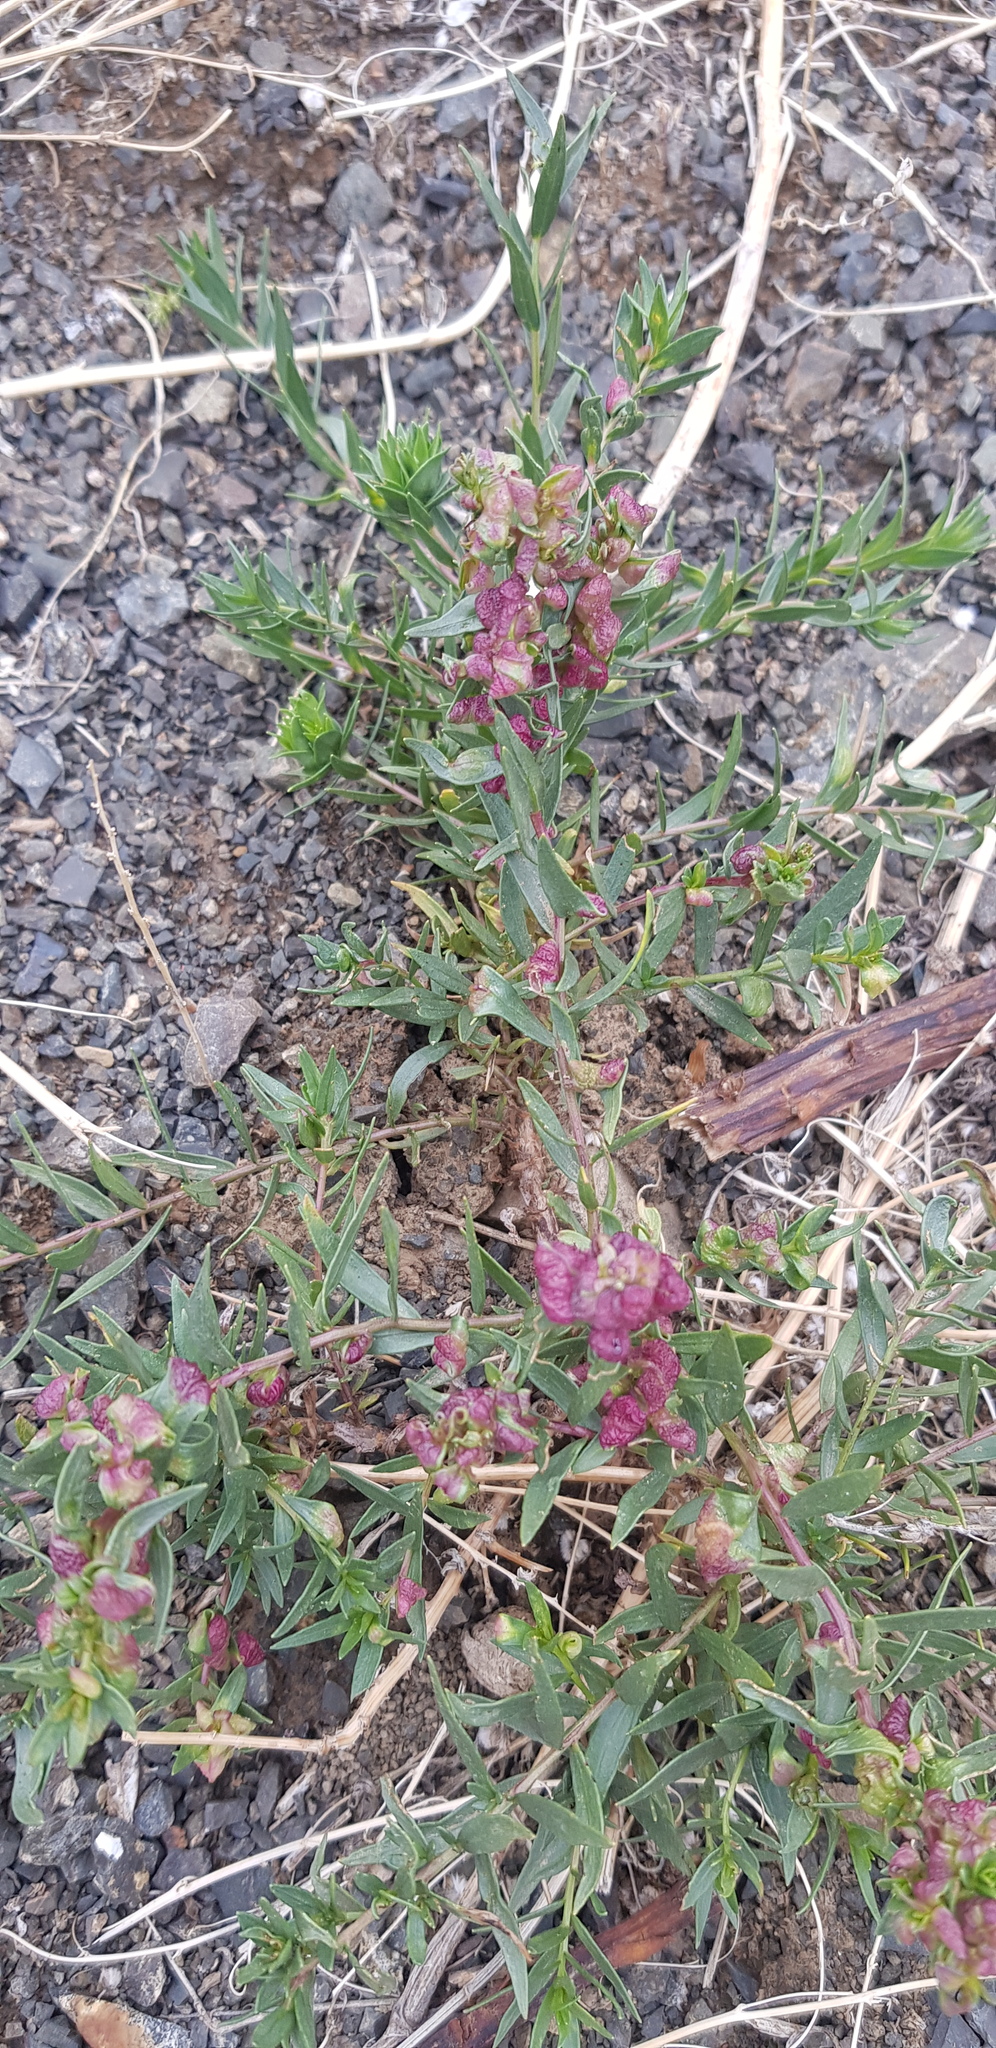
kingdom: Plantae
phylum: Tracheophyta
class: Magnoliopsida
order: Caryophyllales
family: Polygonaceae
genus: Atraphaxis
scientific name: Atraphaxis pungens
